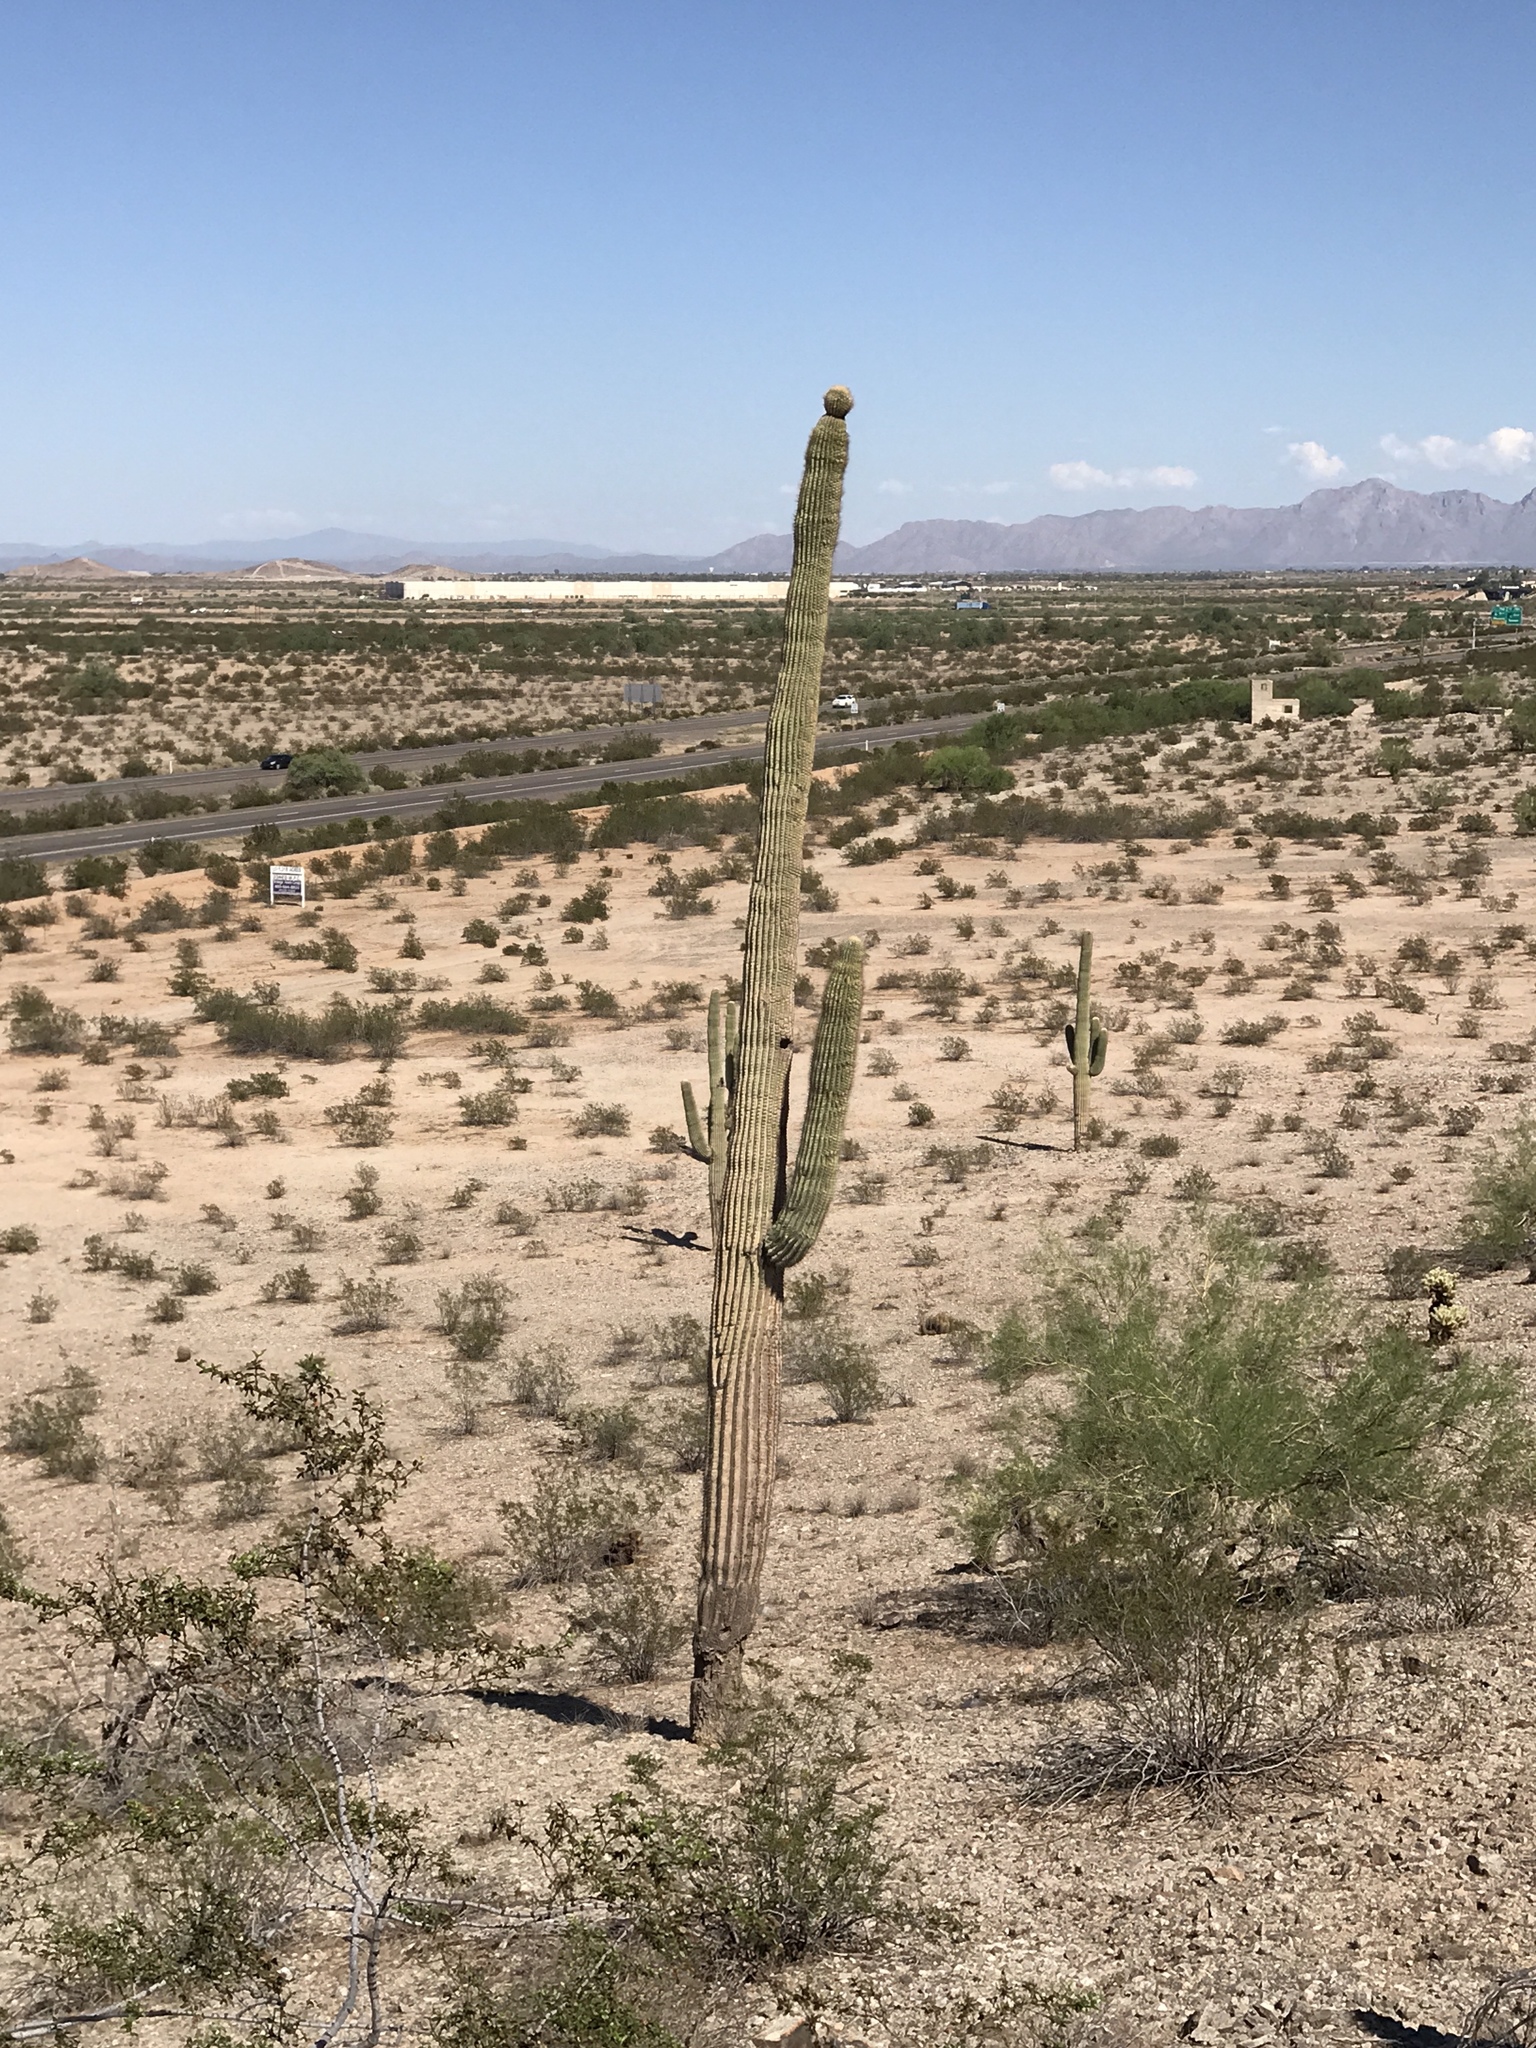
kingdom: Plantae
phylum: Tracheophyta
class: Magnoliopsida
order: Caryophyllales
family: Cactaceae
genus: Carnegiea
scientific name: Carnegiea gigantea
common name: Saguaro
